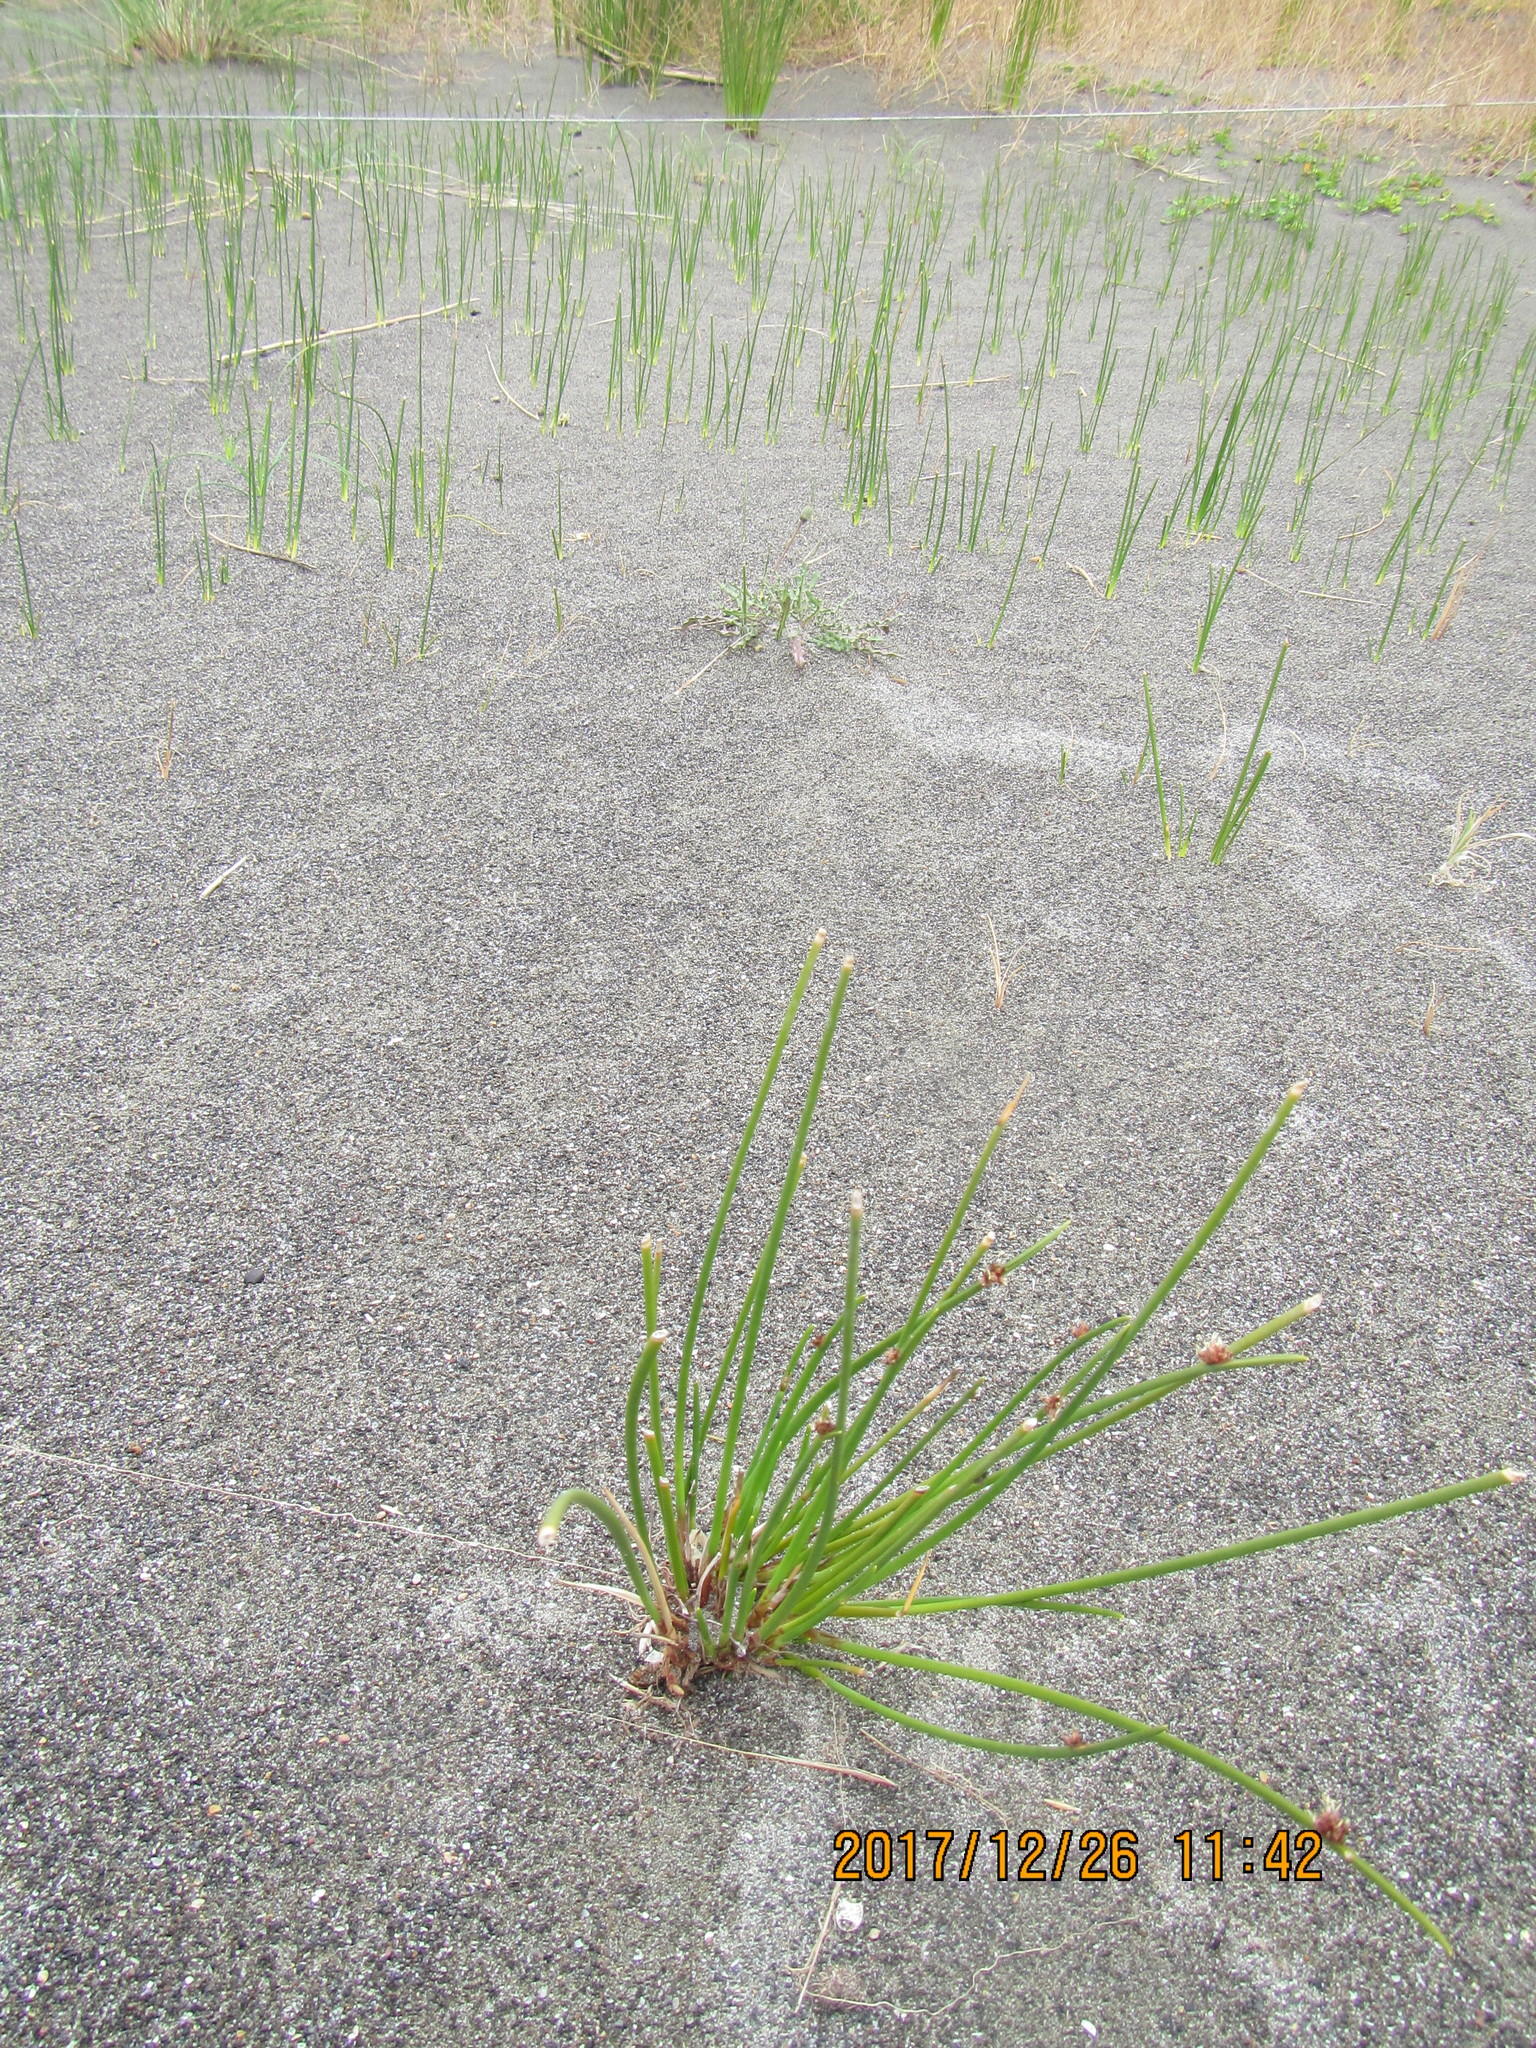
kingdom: Plantae
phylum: Tracheophyta
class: Liliopsida
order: Poales
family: Cyperaceae
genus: Ficinia
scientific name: Ficinia nodosa
